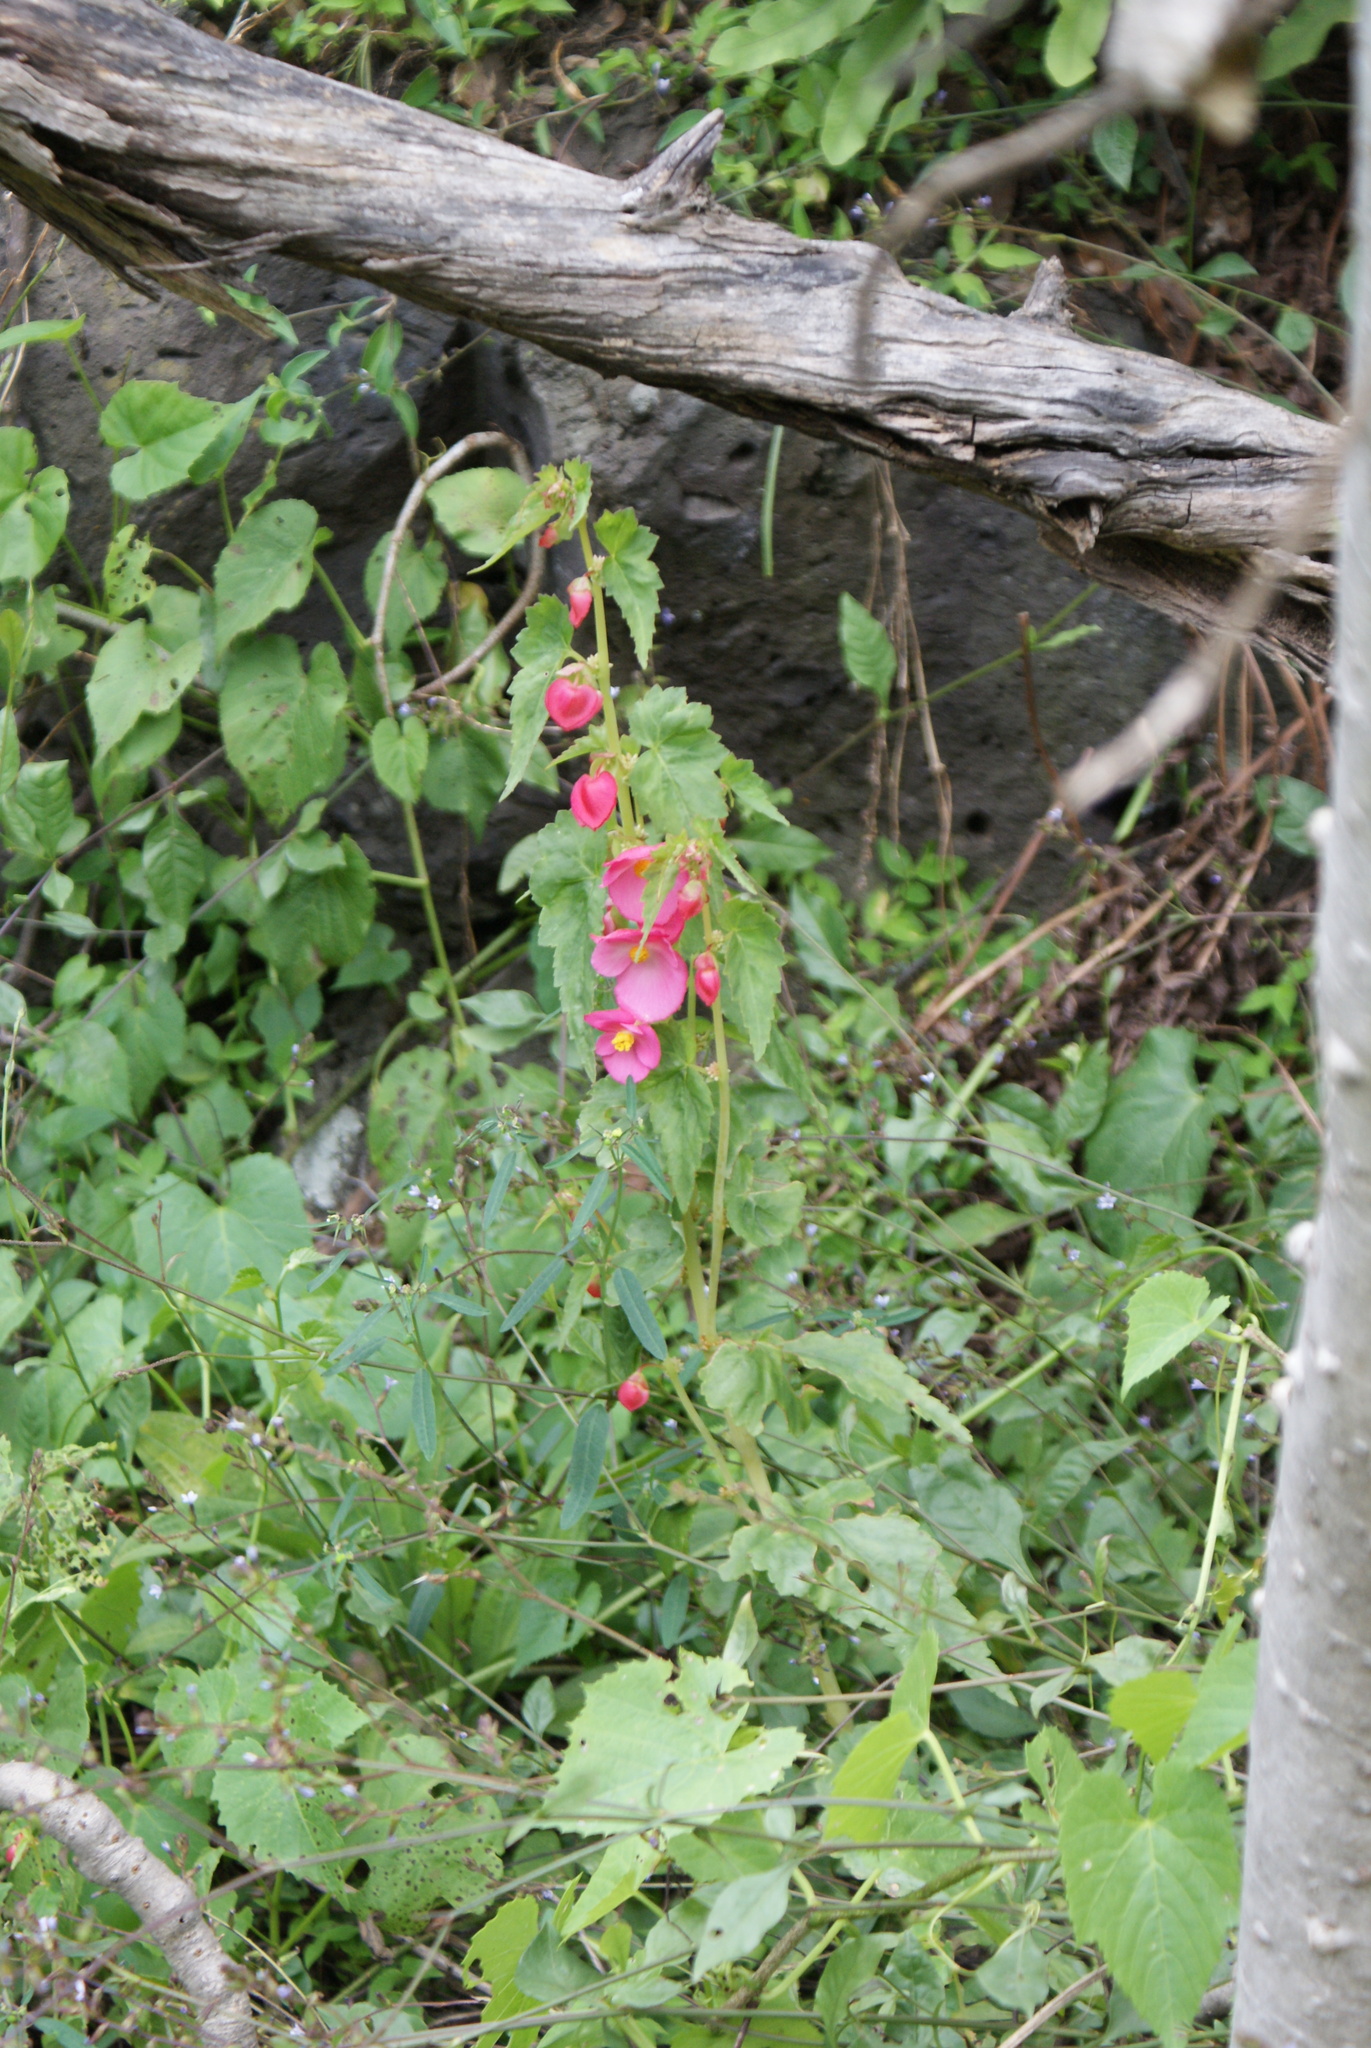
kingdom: Plantae
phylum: Tracheophyta
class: Magnoliopsida
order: Cucurbitales
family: Begoniaceae
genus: Begonia
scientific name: Begonia gracilis
